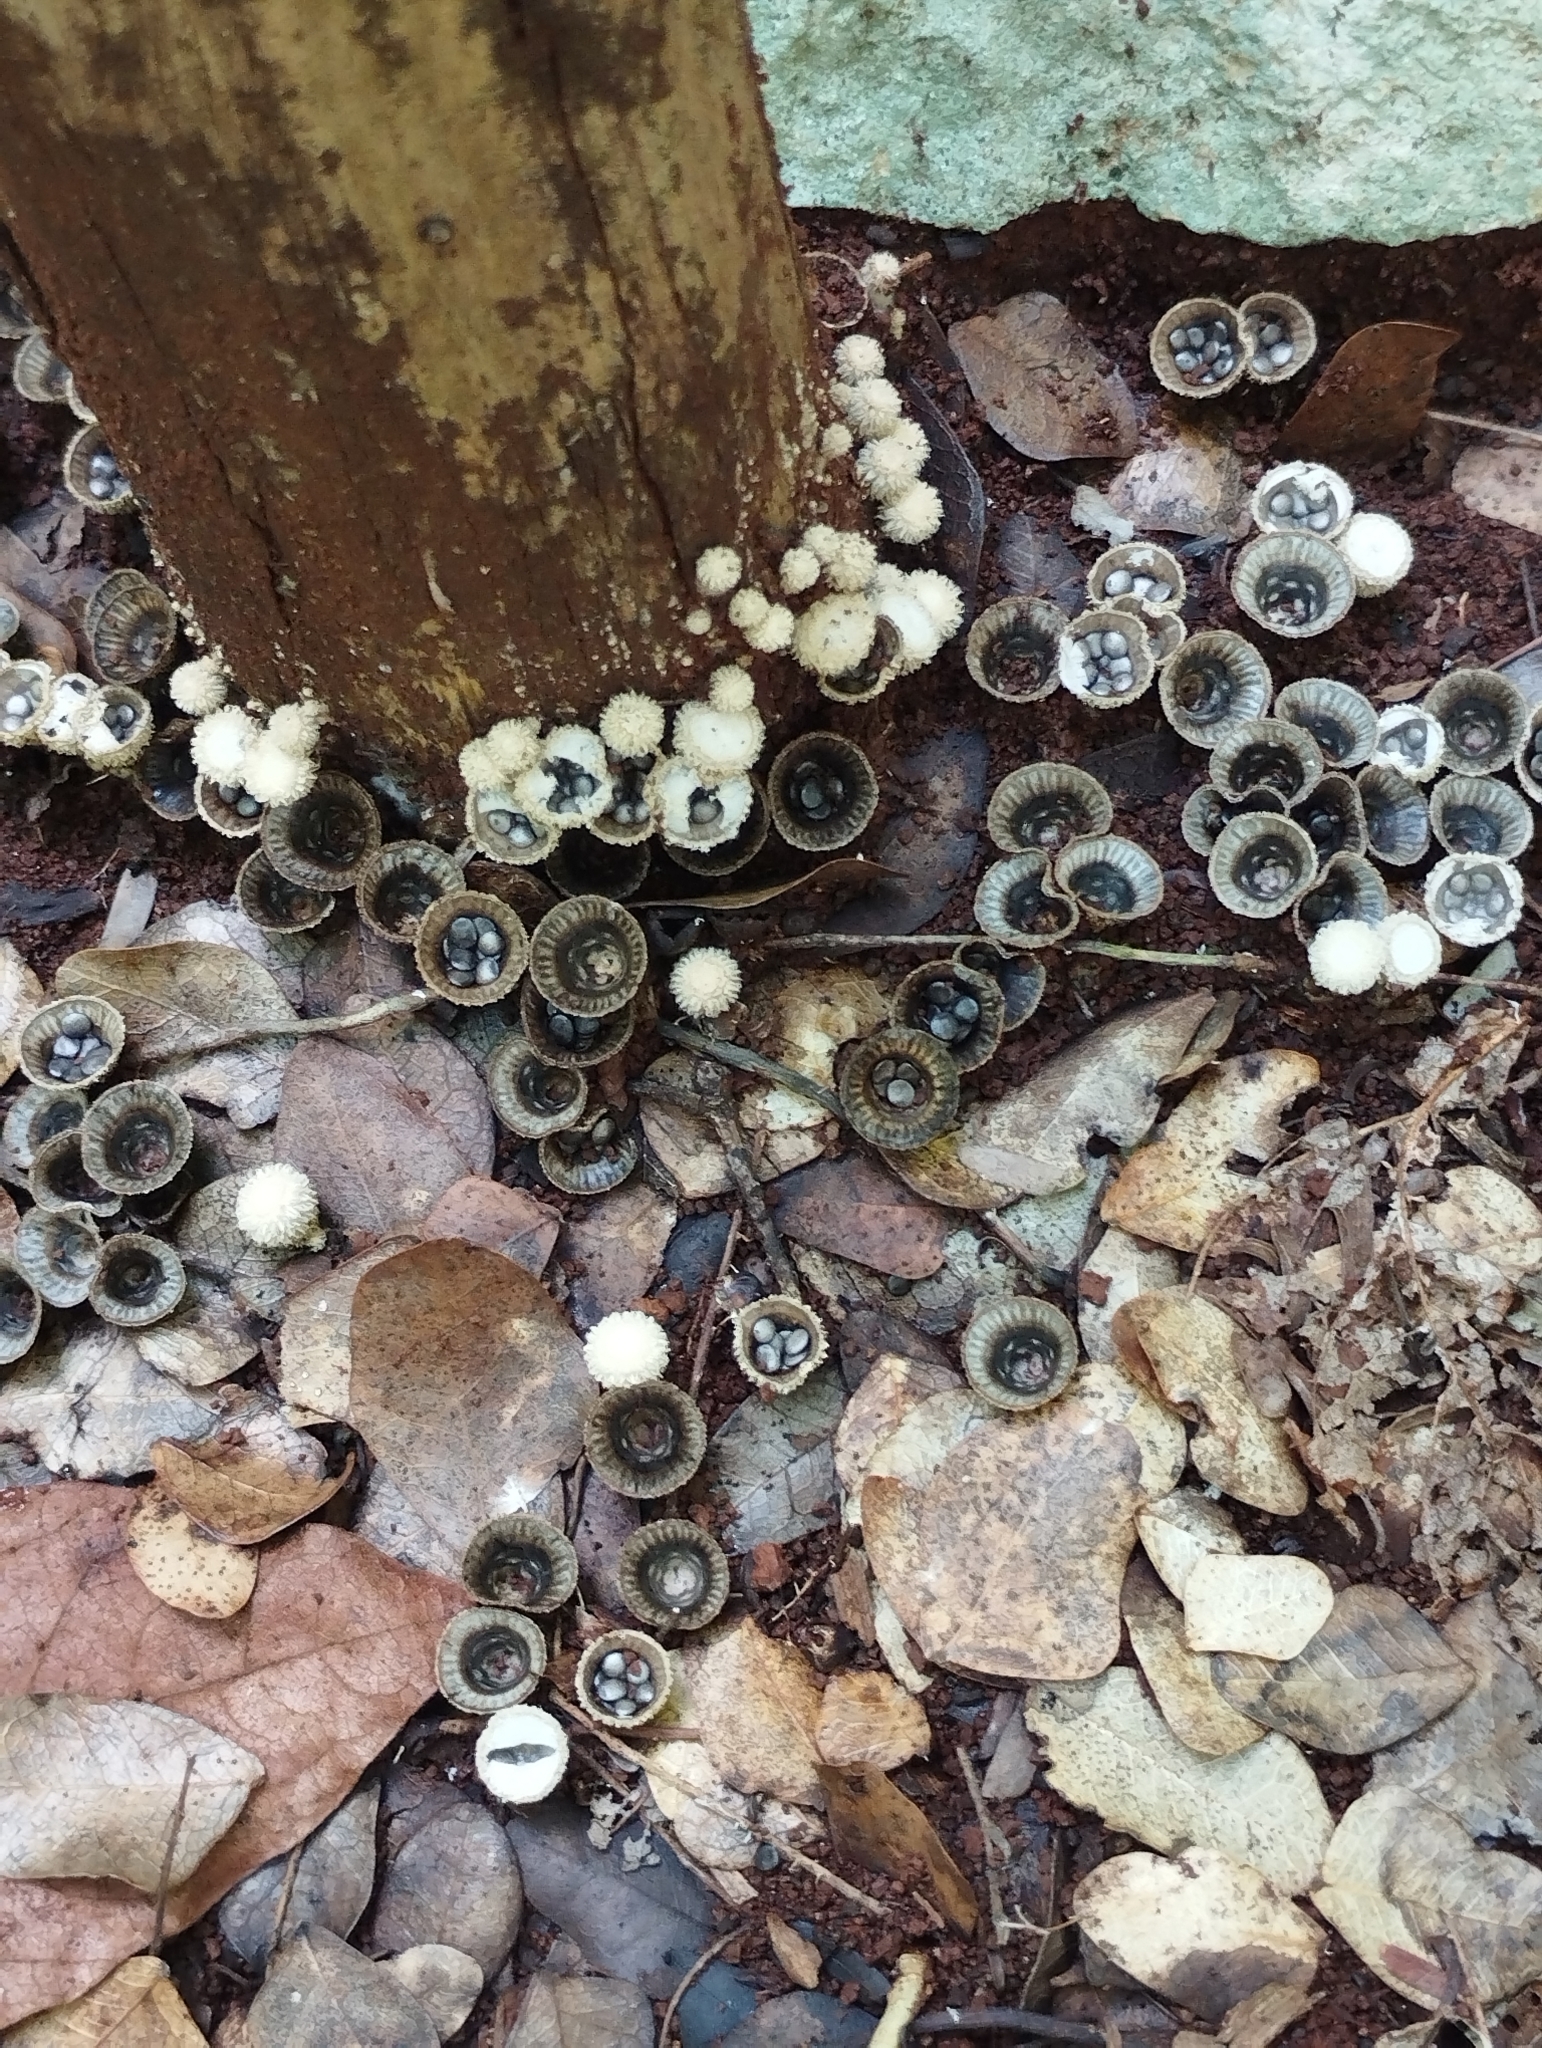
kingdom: Fungi
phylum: Basidiomycota
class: Agaricomycetes
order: Agaricales
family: Agaricaceae
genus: Cyathus
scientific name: Cyathus striatus
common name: Fluted bird's nest
